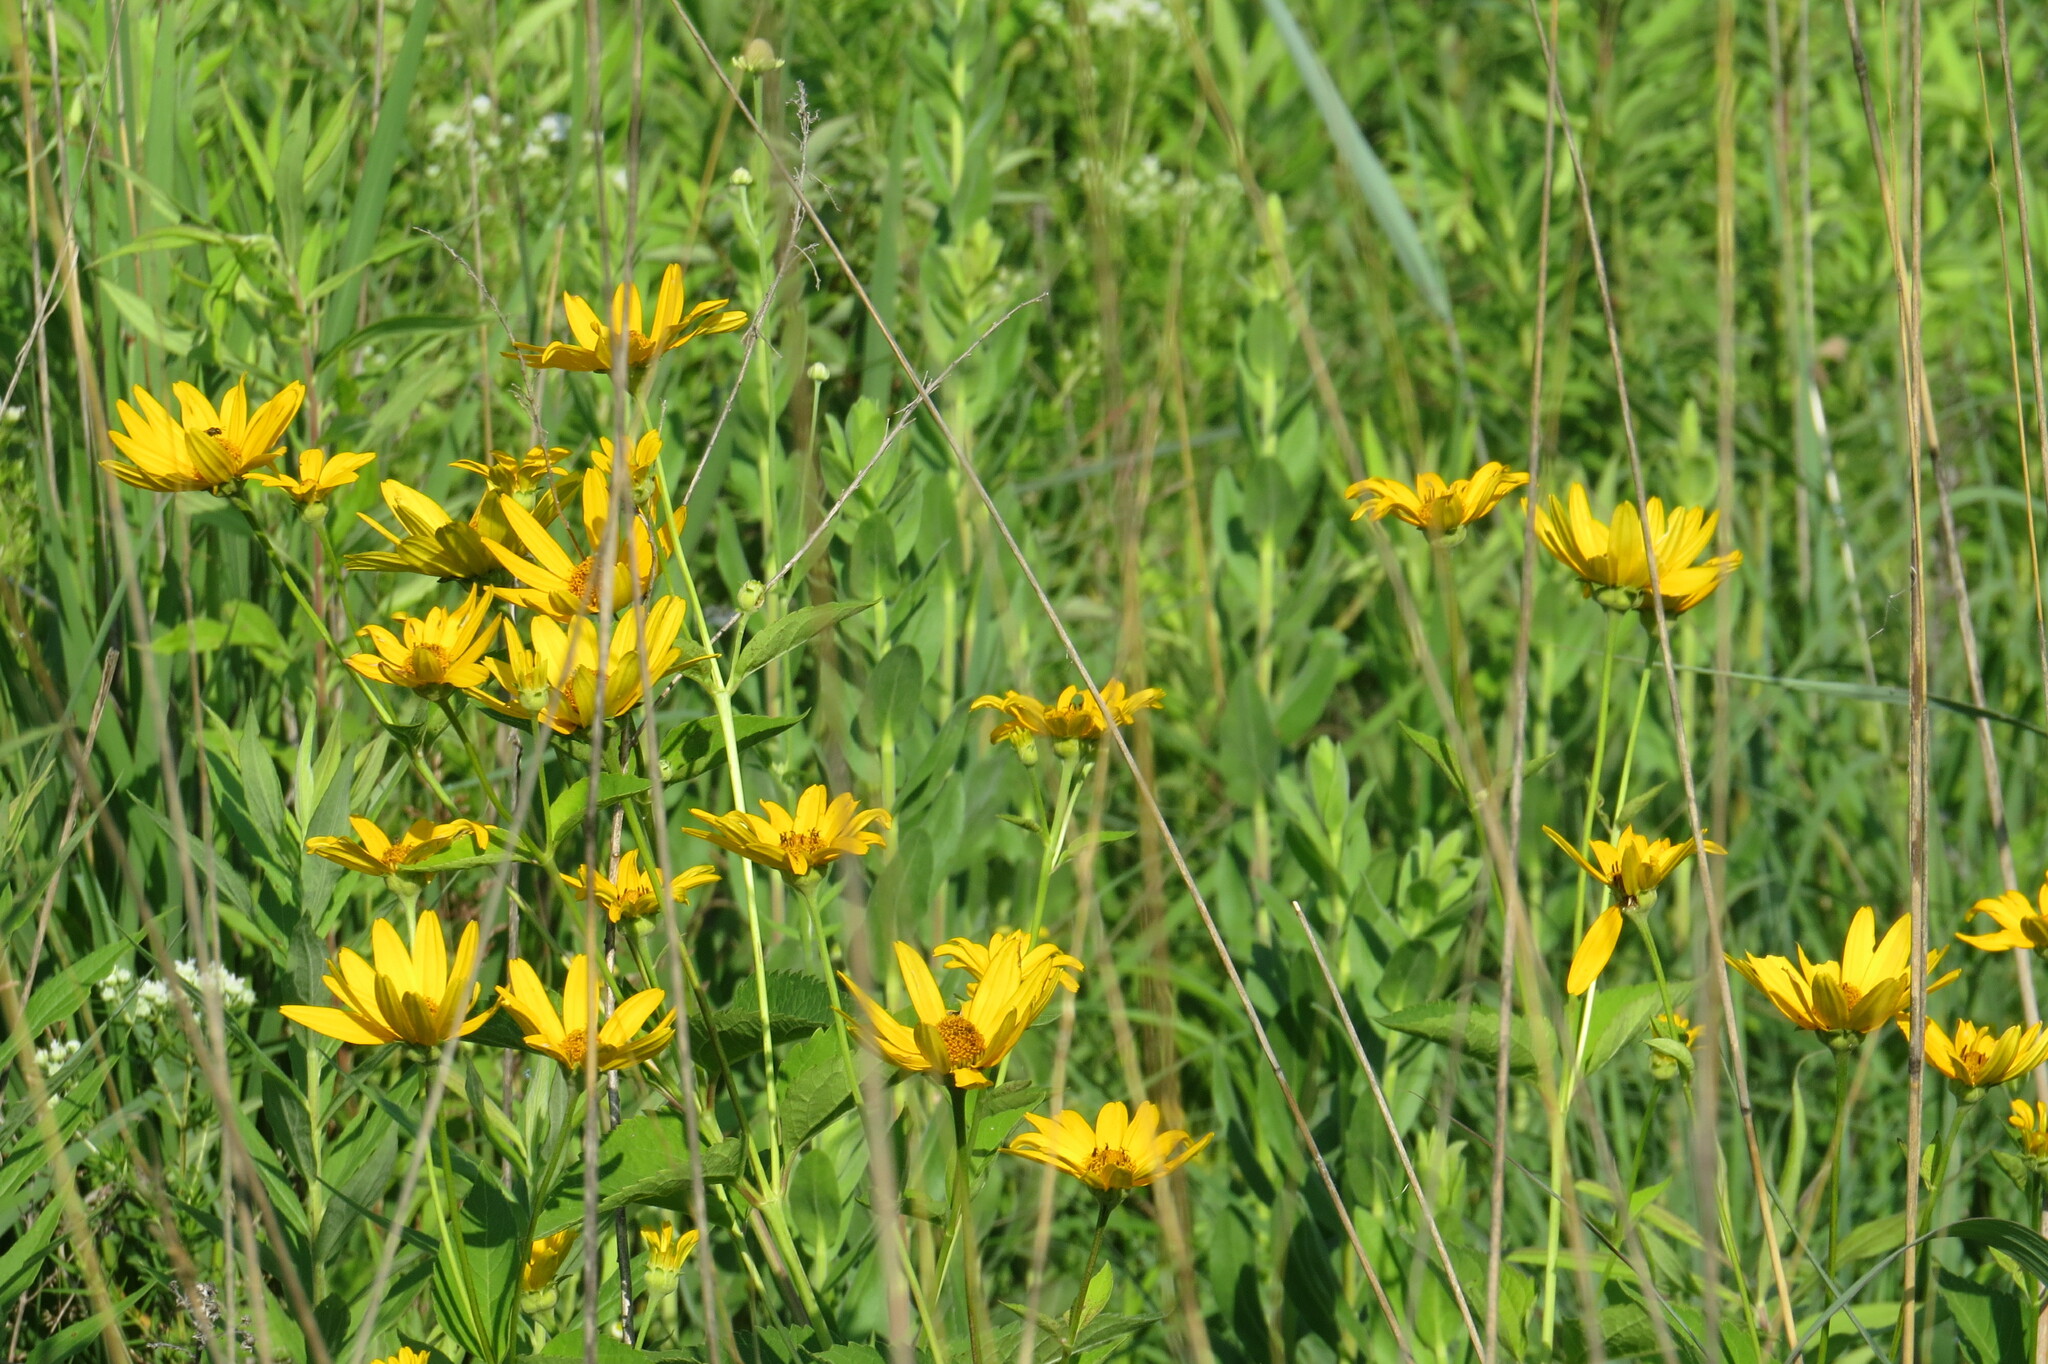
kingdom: Plantae
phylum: Tracheophyta
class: Magnoliopsida
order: Asterales
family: Asteraceae
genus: Heliopsis
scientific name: Heliopsis helianthoides
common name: False sunflower
